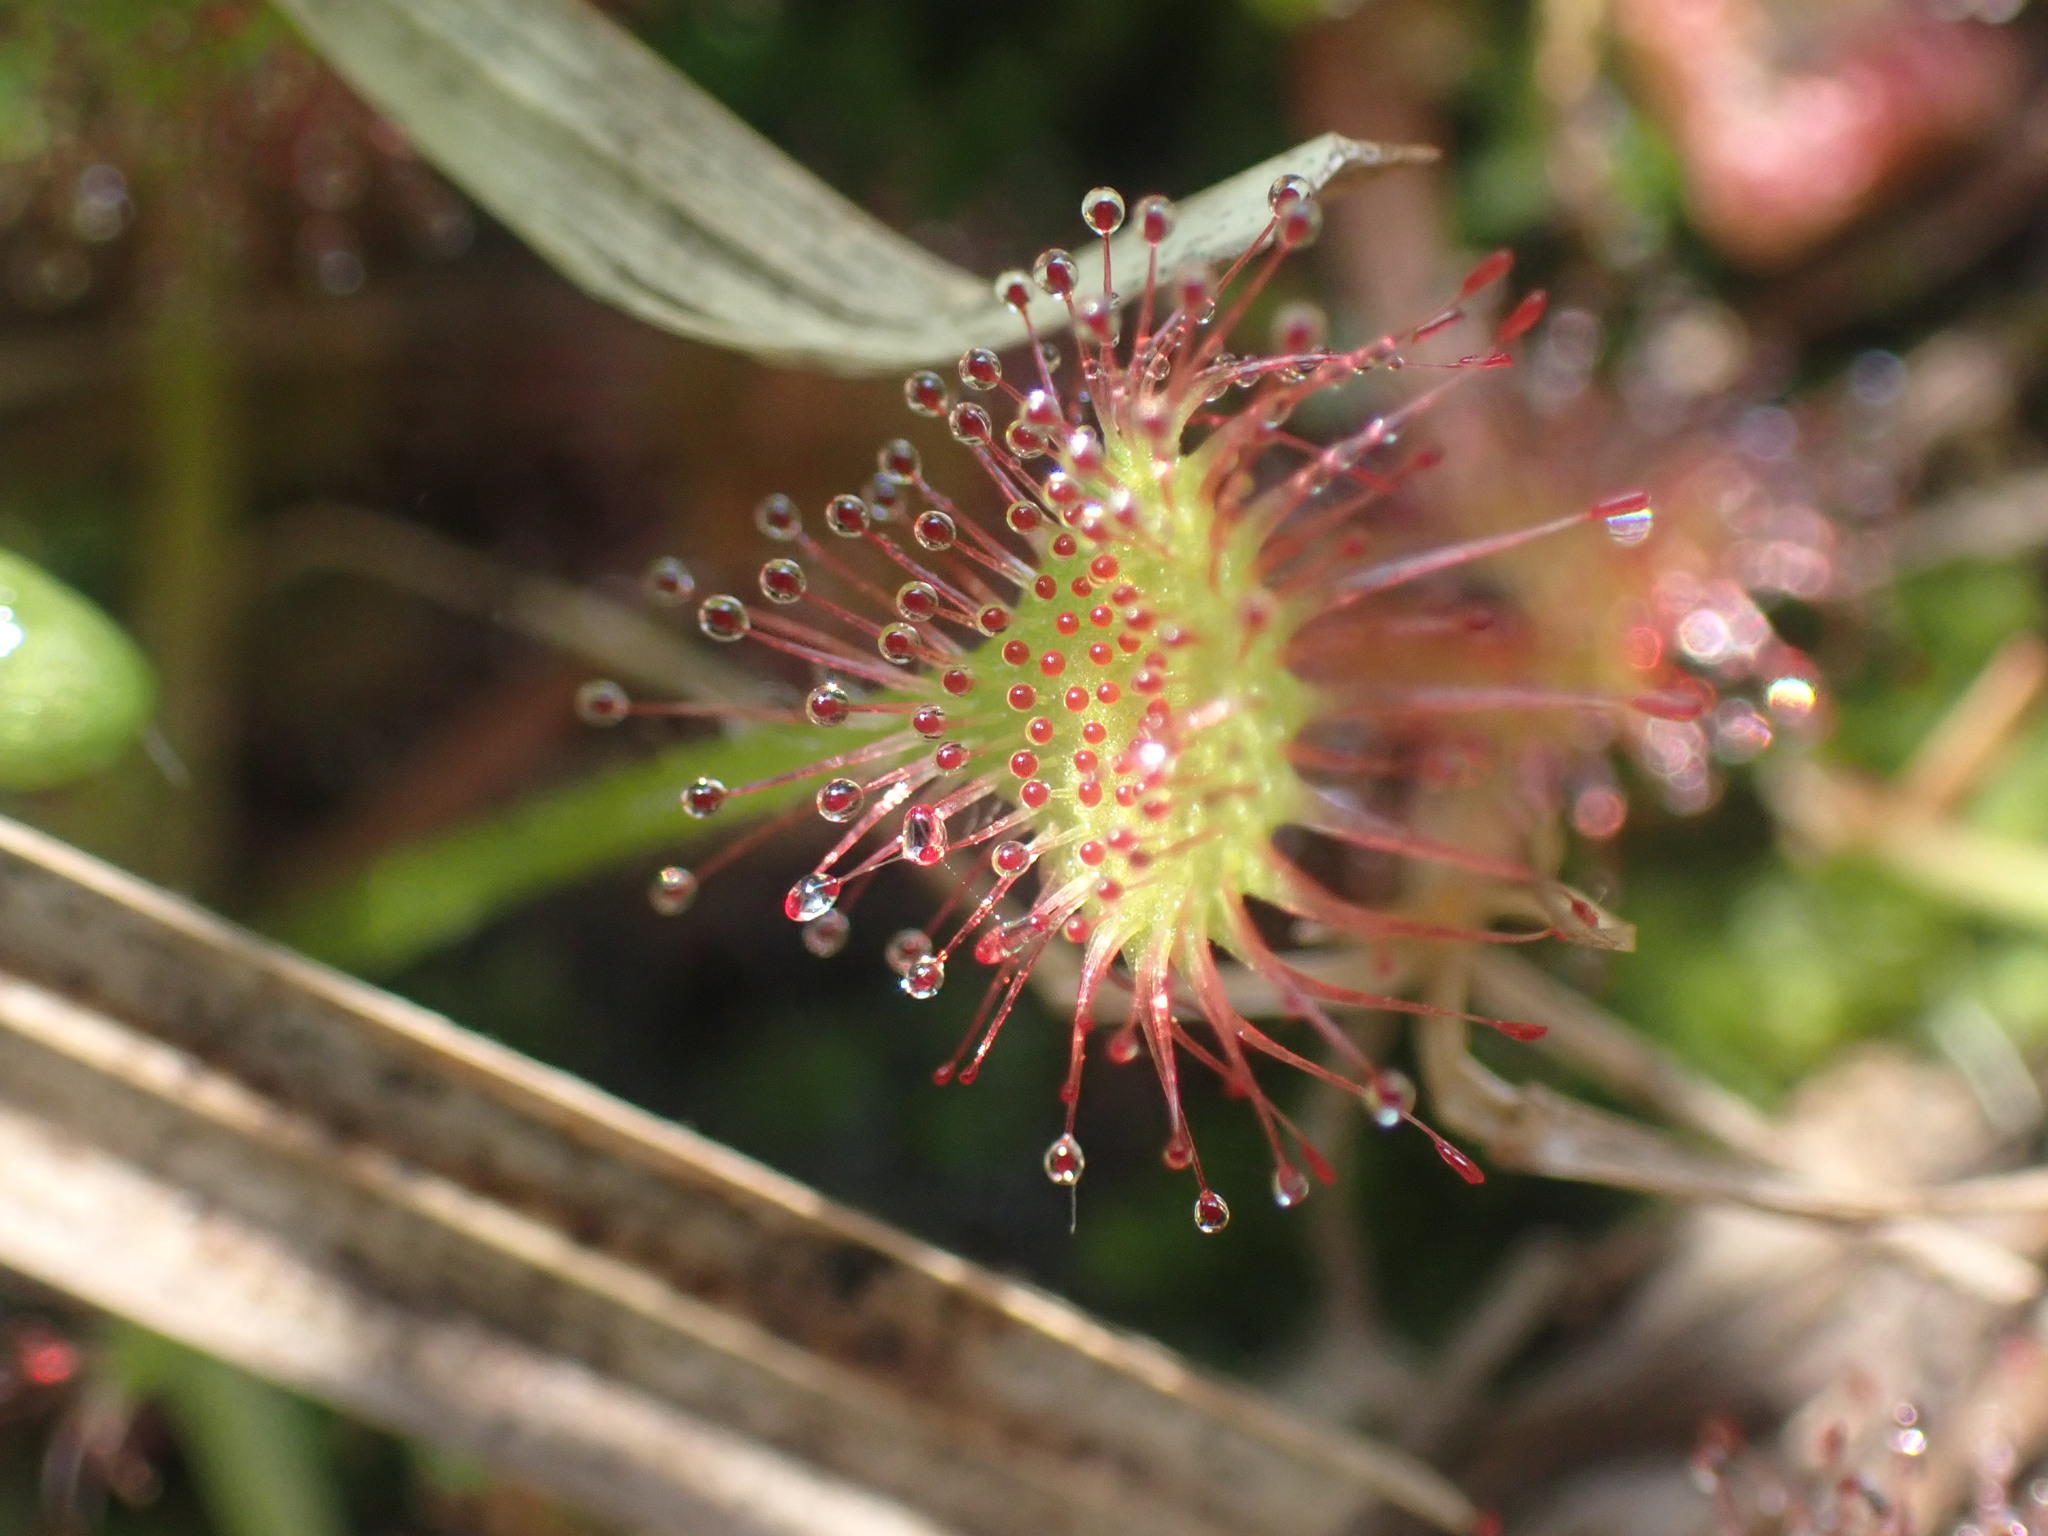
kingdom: Plantae
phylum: Tracheophyta
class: Magnoliopsida
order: Caryophyllales
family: Droseraceae
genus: Drosera
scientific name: Drosera rotundifolia
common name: Round-leaved sundew
